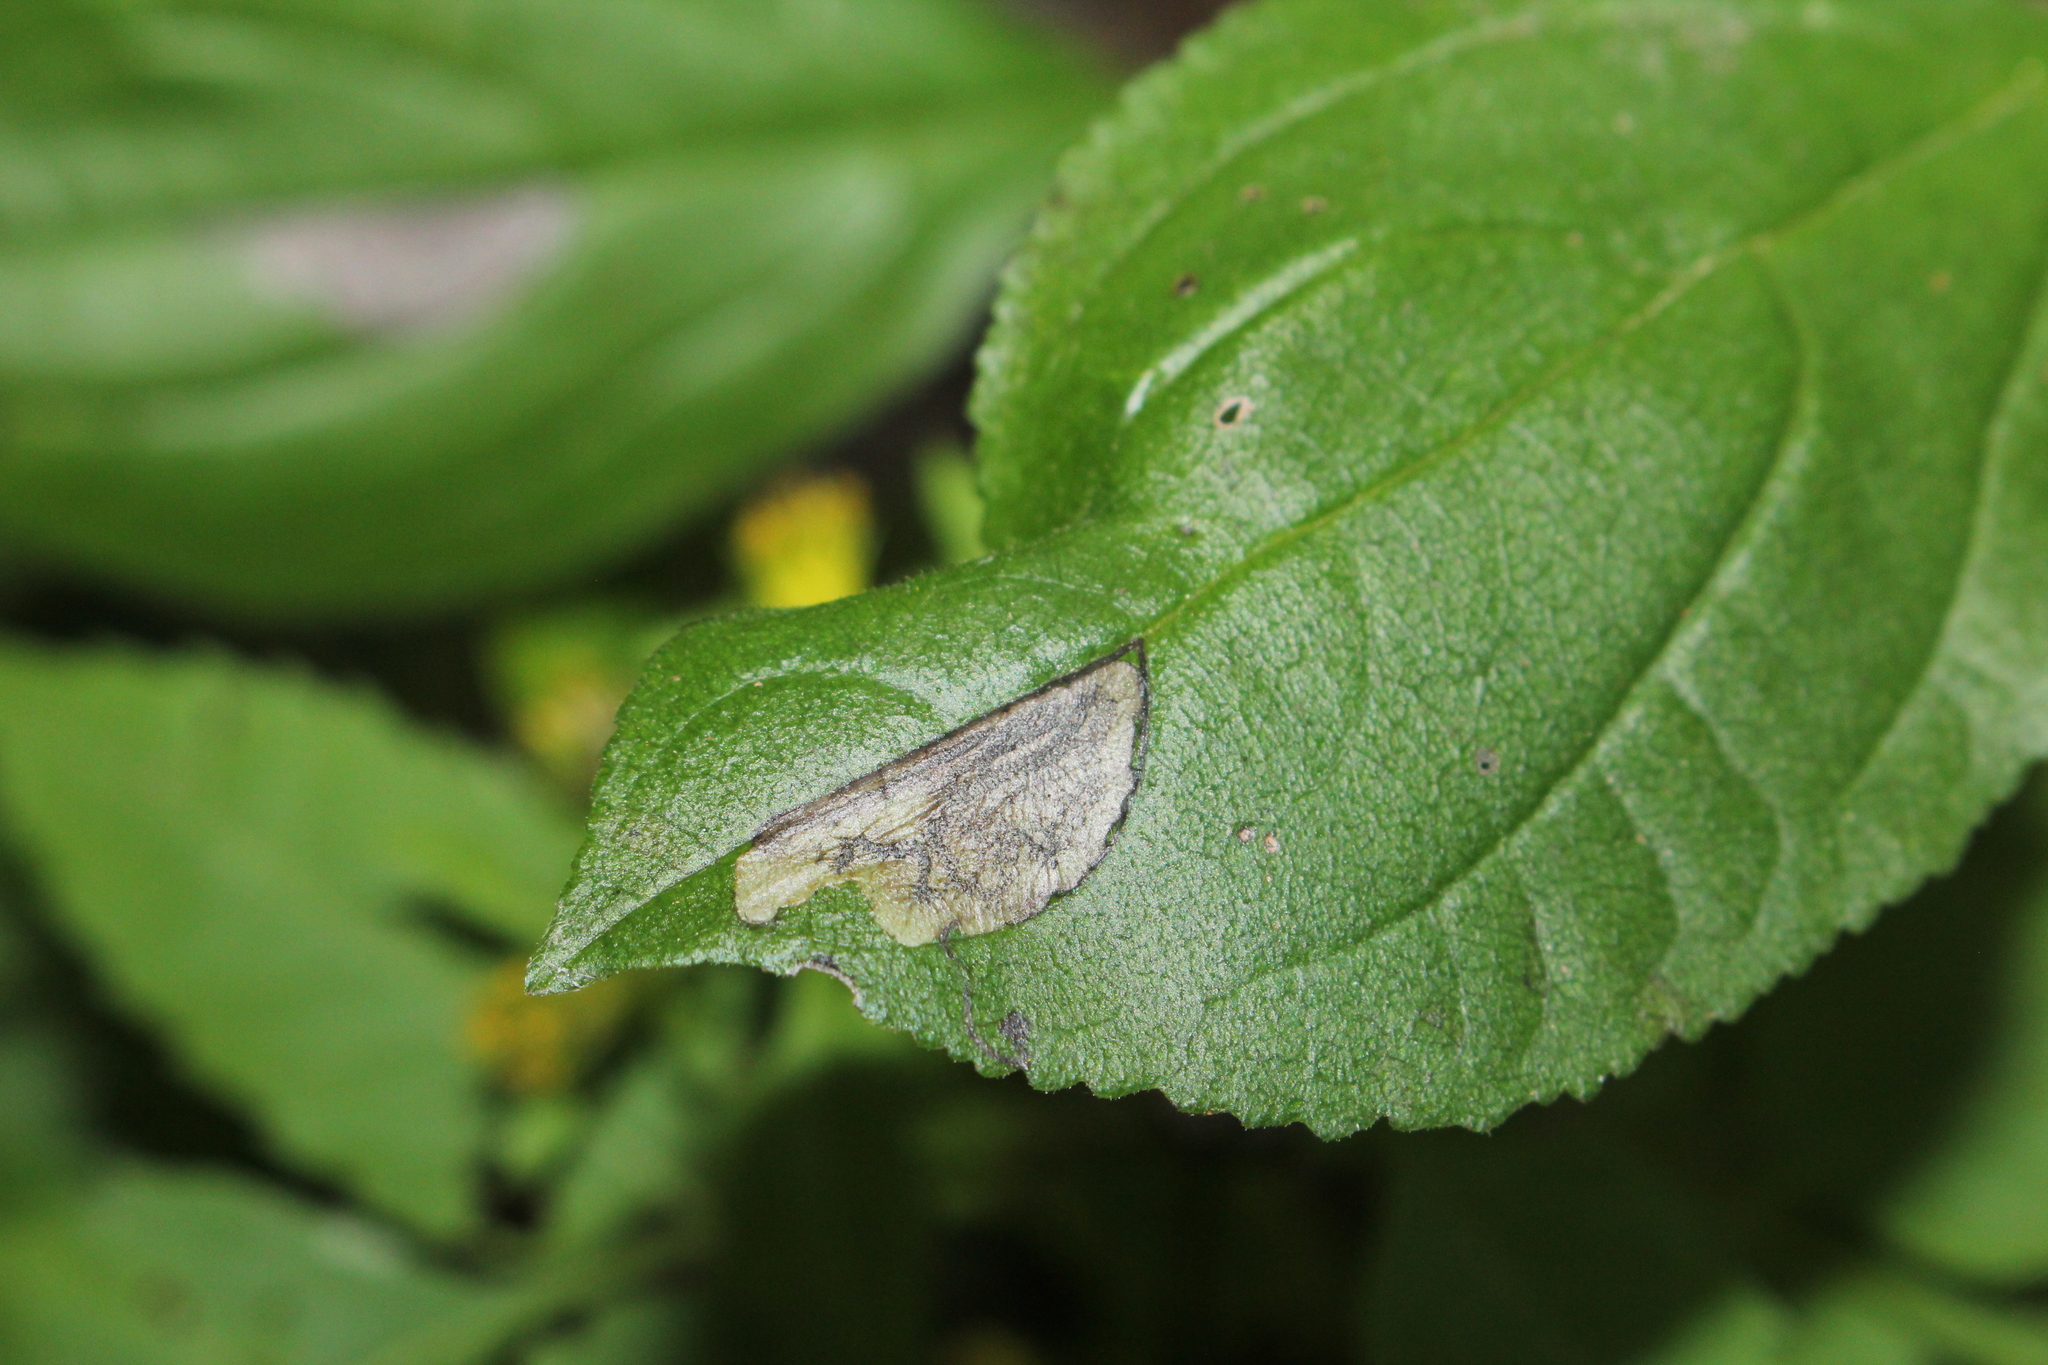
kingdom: Animalia
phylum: Arthropoda
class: Insecta
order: Lepidoptera
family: Nepticulidae
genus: Stigmella
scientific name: Stigmella rhamnicola
